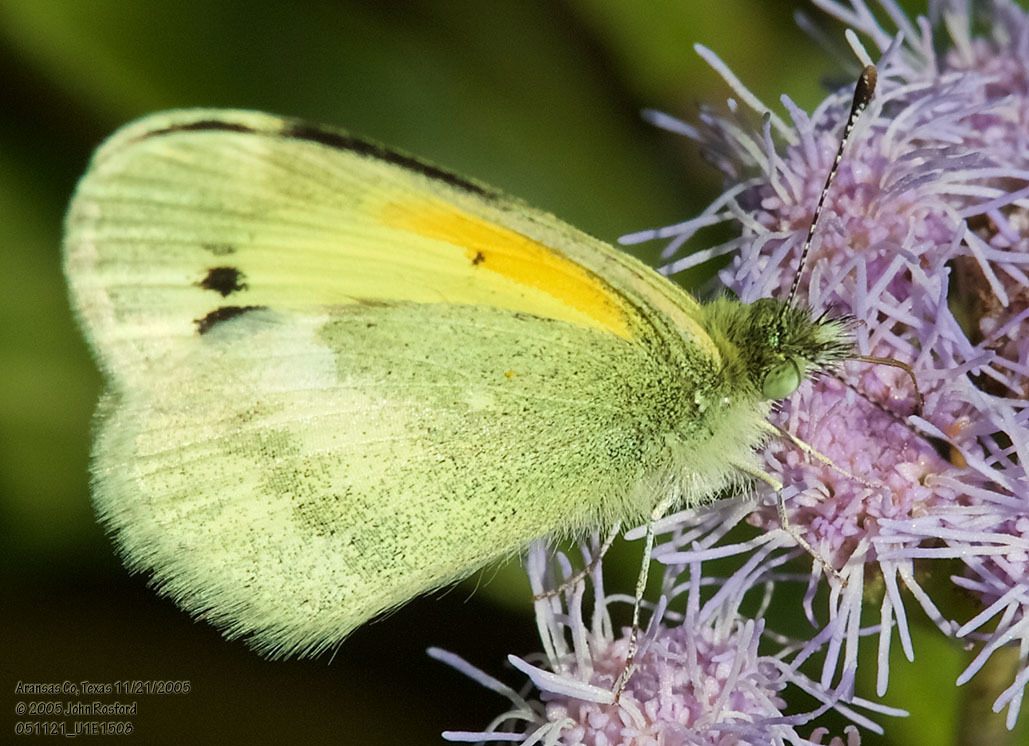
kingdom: Animalia
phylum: Arthropoda
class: Insecta
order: Lepidoptera
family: Pieridae
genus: Nathalis
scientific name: Nathalis iole
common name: Dainty sulphur
